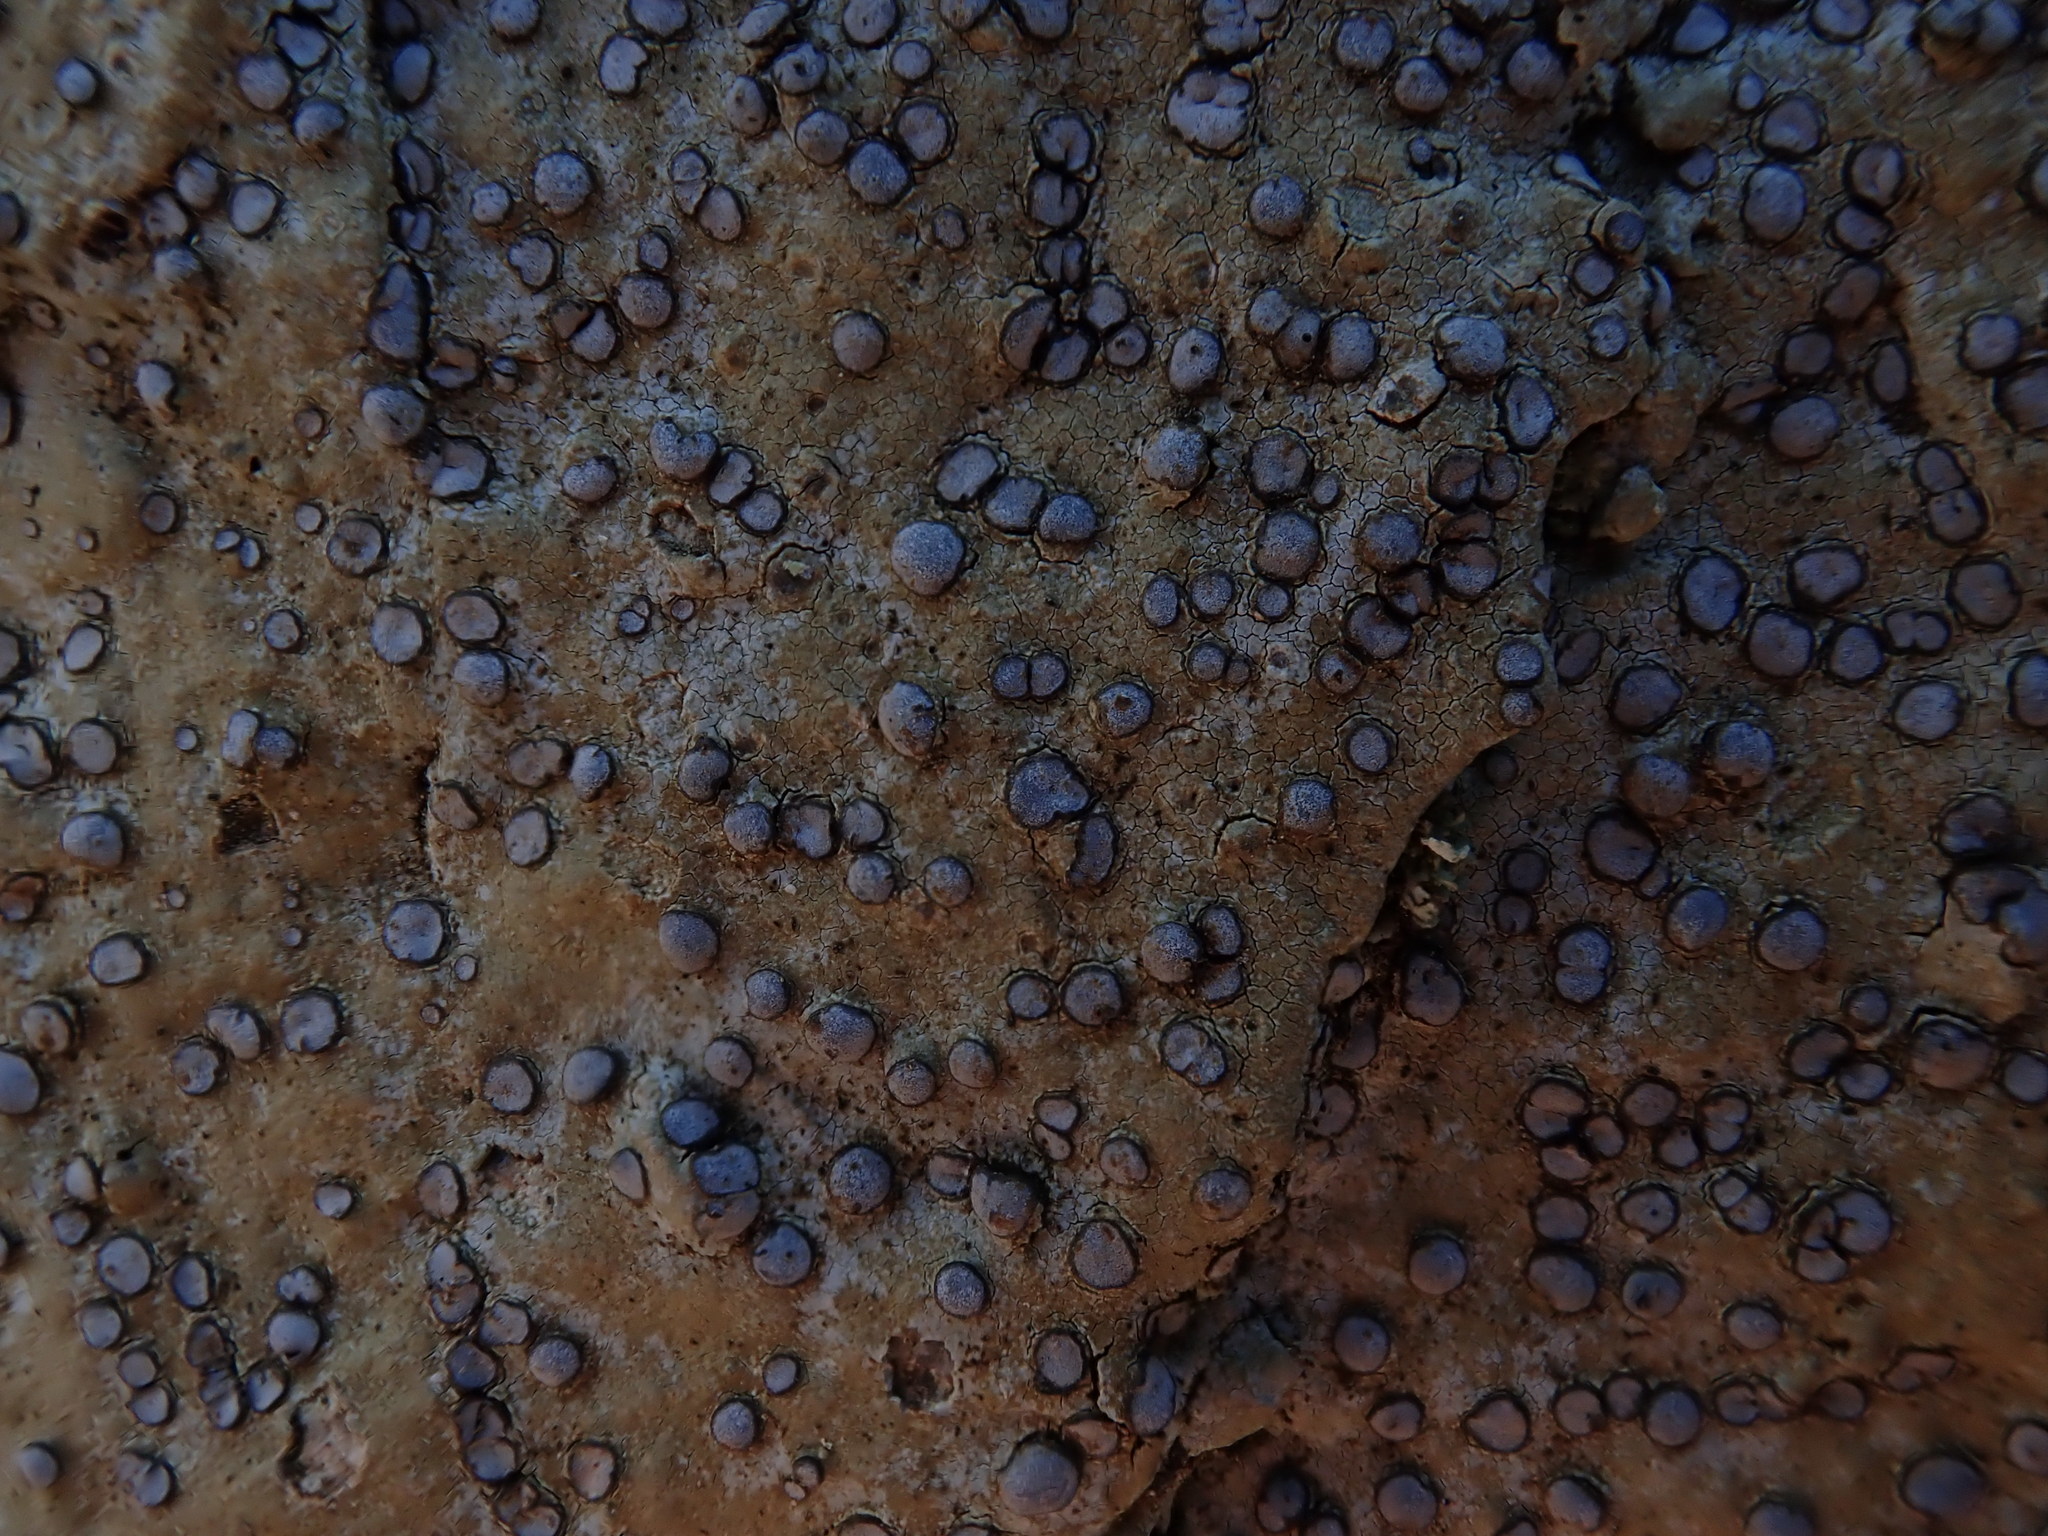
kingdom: Fungi
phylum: Ascomycota
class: Lecanoromycetes
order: Lecideales
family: Lecideaceae
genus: Porpidia
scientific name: Porpidia albocaerulescens
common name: Smokey-eyed boulder lichen
